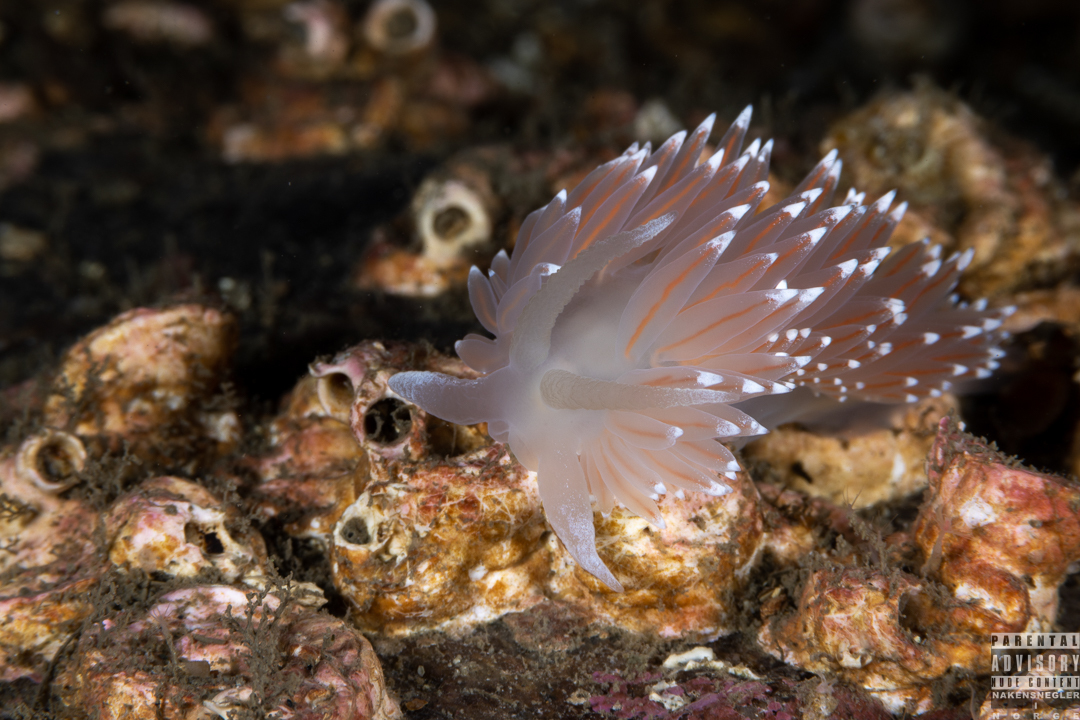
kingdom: Animalia
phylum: Mollusca
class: Gastropoda
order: Nudibranchia
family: Coryphellidae
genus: Coryphella
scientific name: Coryphella nobilis
